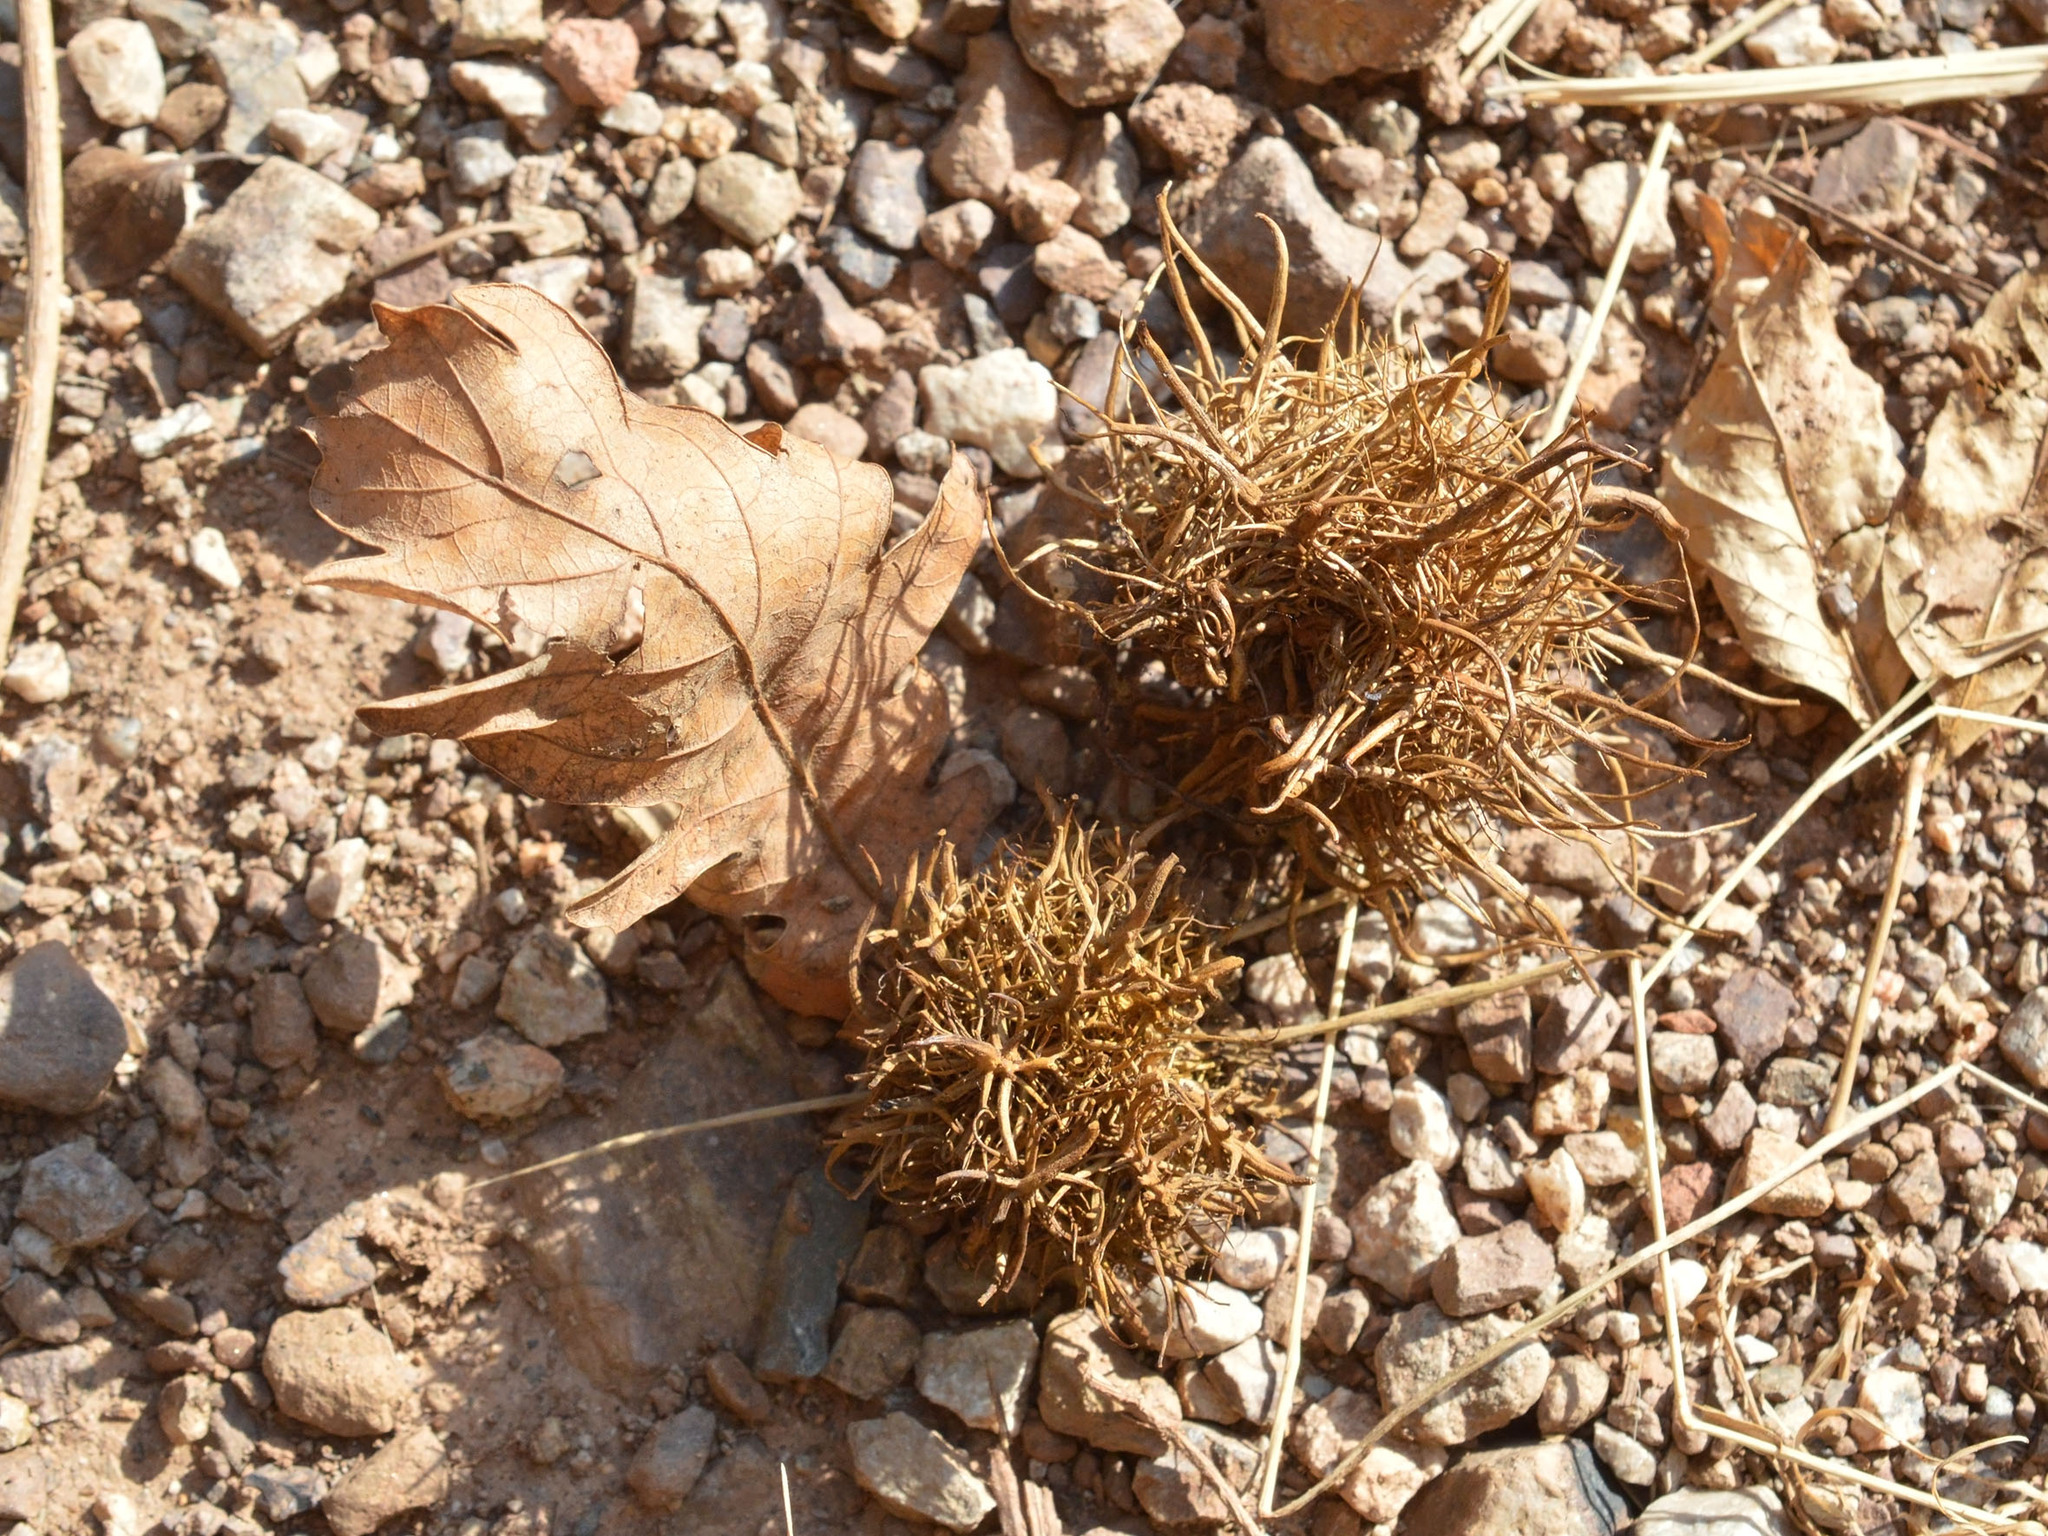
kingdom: Animalia
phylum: Arthropoda
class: Insecta
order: Hymenoptera
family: Cynipidae
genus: Andricus
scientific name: Andricus caputmedusae
